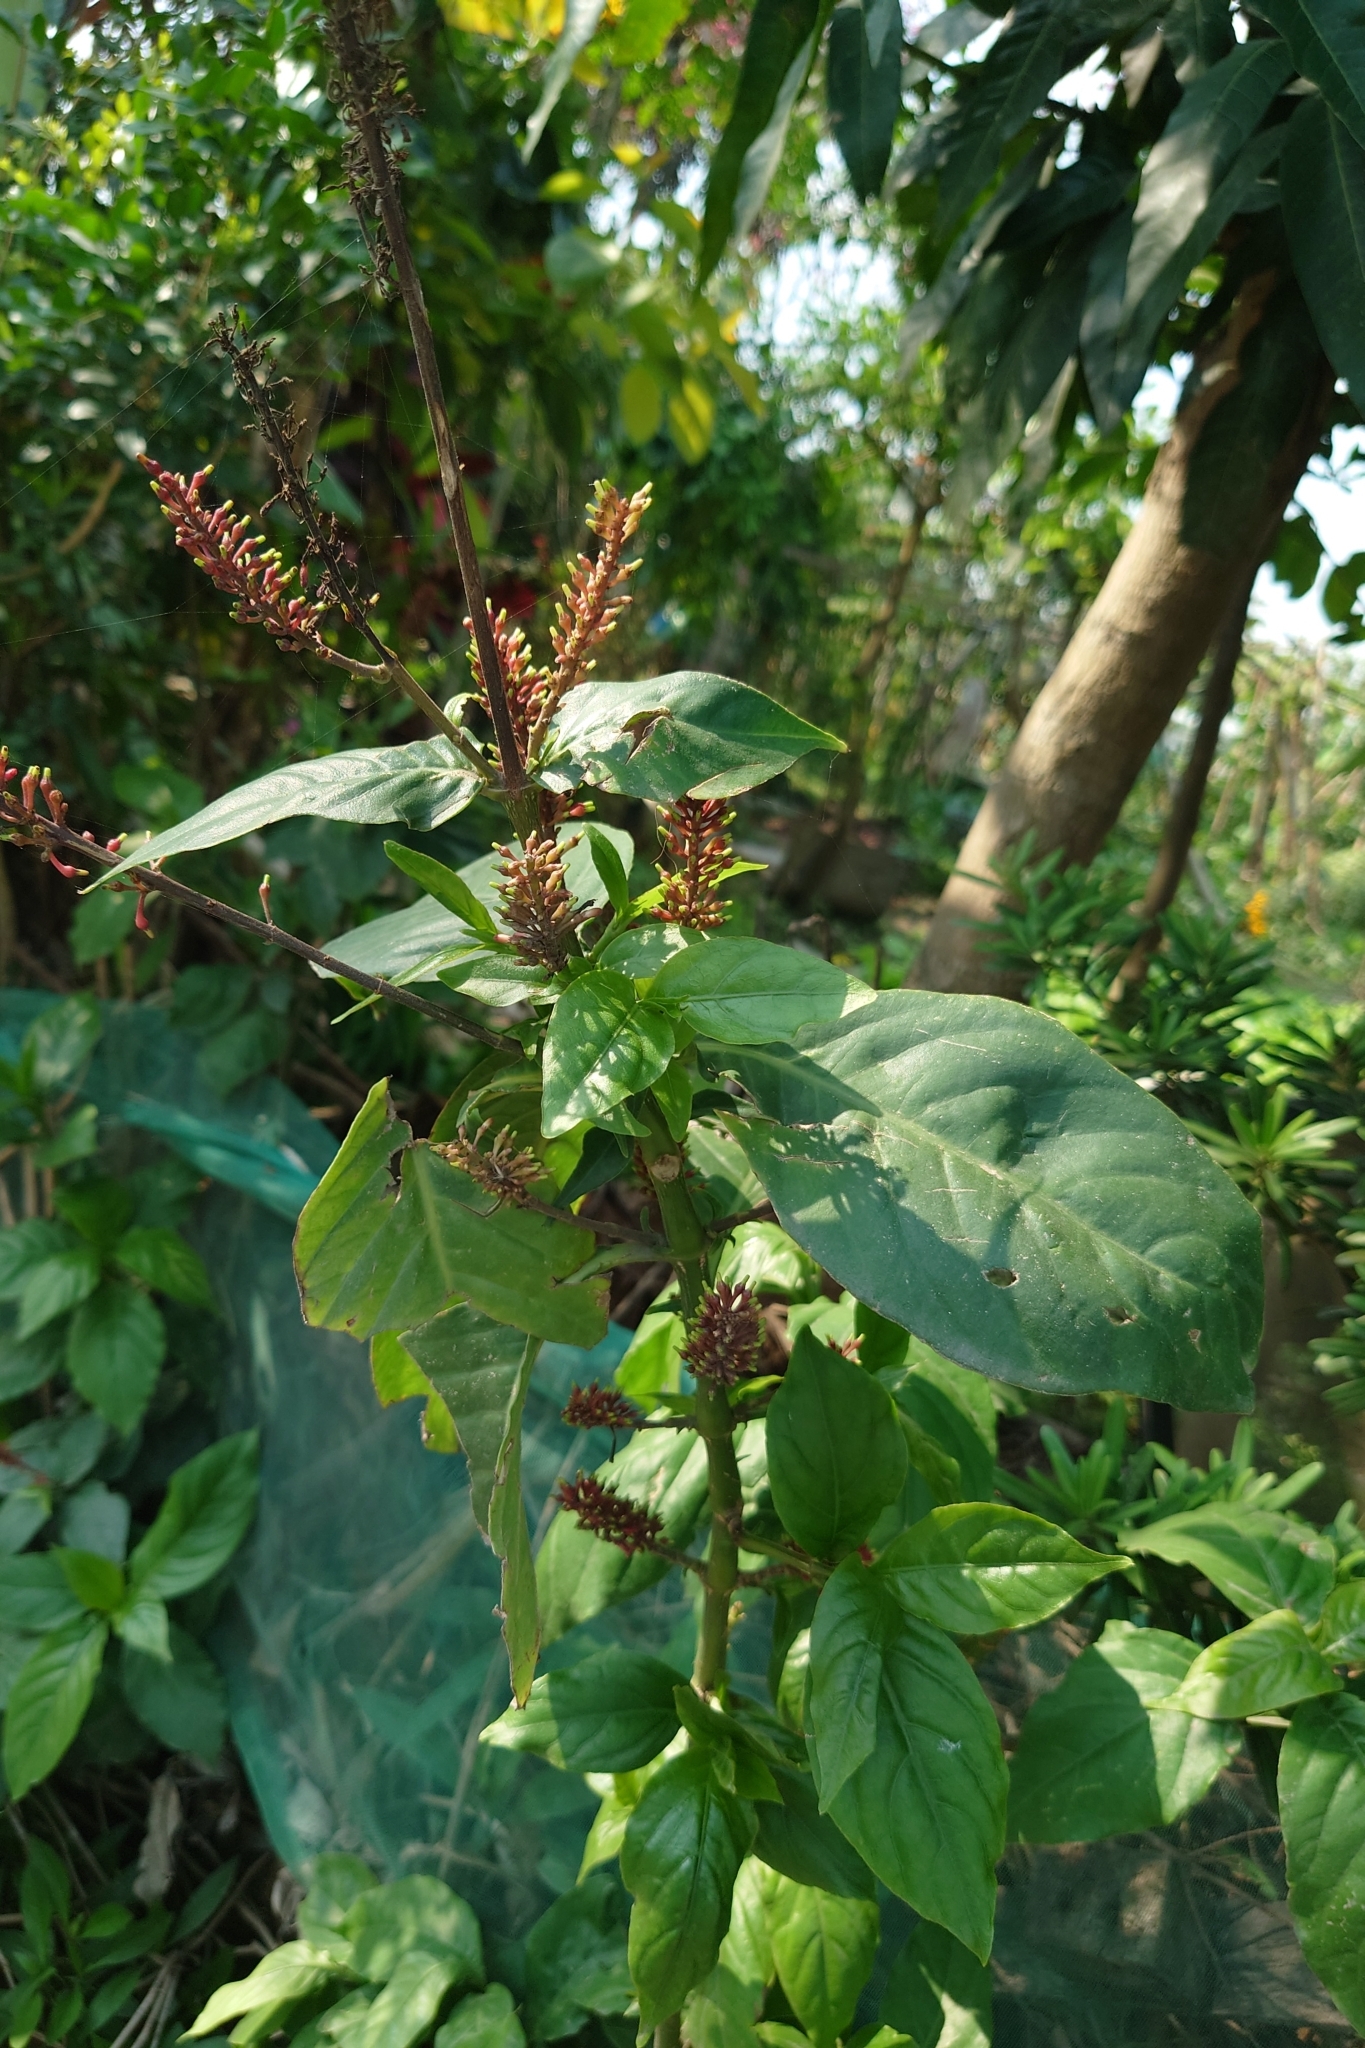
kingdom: Plantae
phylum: Tracheophyta
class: Magnoliopsida
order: Lamiales
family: Acanthaceae
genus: Odontonema
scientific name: Odontonema tubaeforme
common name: Firespike
